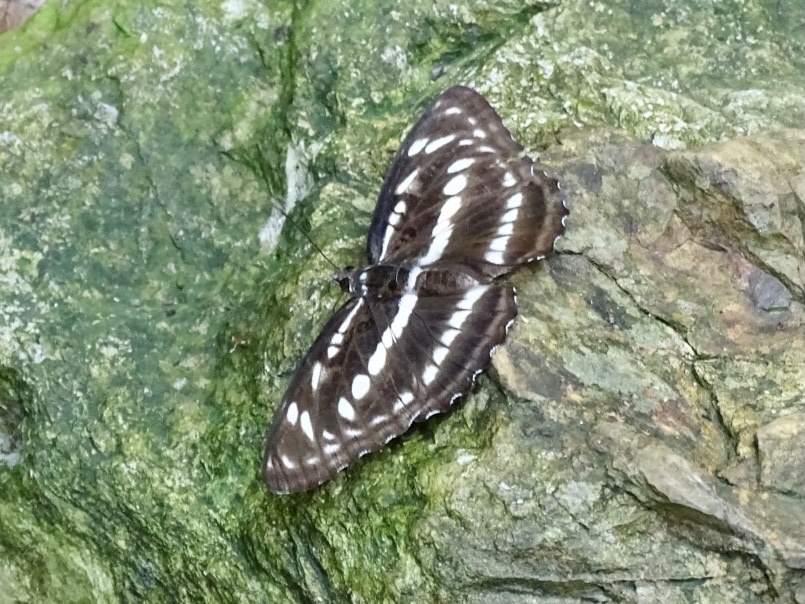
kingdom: Animalia
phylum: Arthropoda
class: Insecta
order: Lepidoptera
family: Nymphalidae
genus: Parathyma
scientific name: Parathyma perius
